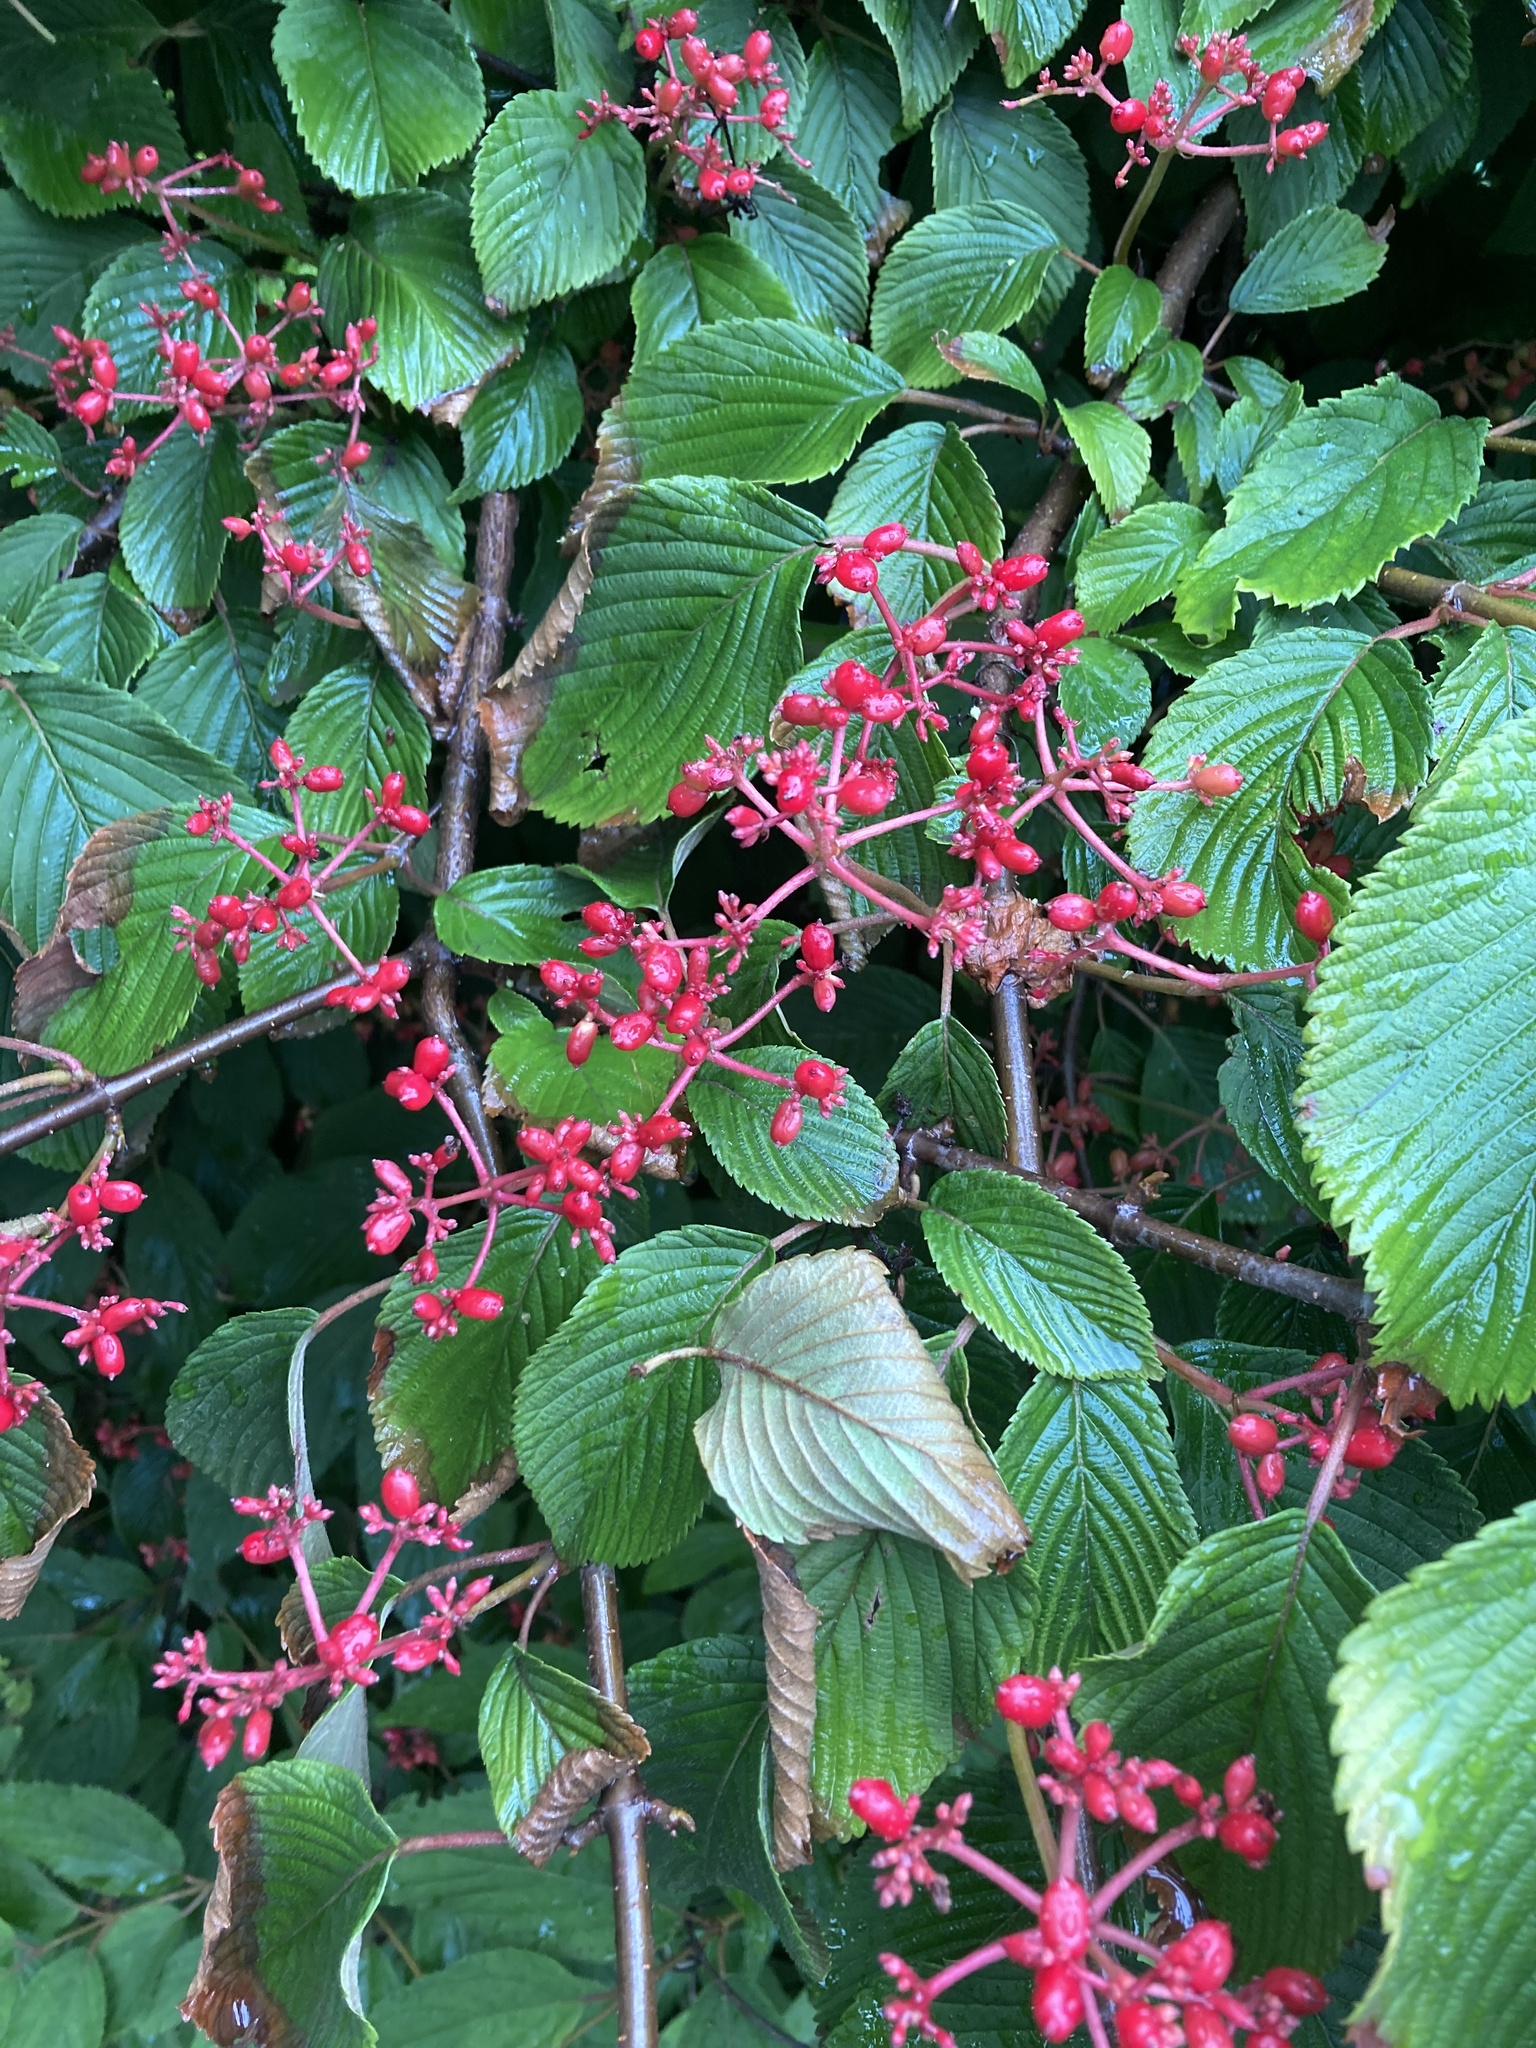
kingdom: Plantae
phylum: Tracheophyta
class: Magnoliopsida
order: Dipsacales
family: Viburnaceae
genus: Viburnum
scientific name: Viburnum plicatum
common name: Japanese snowball
